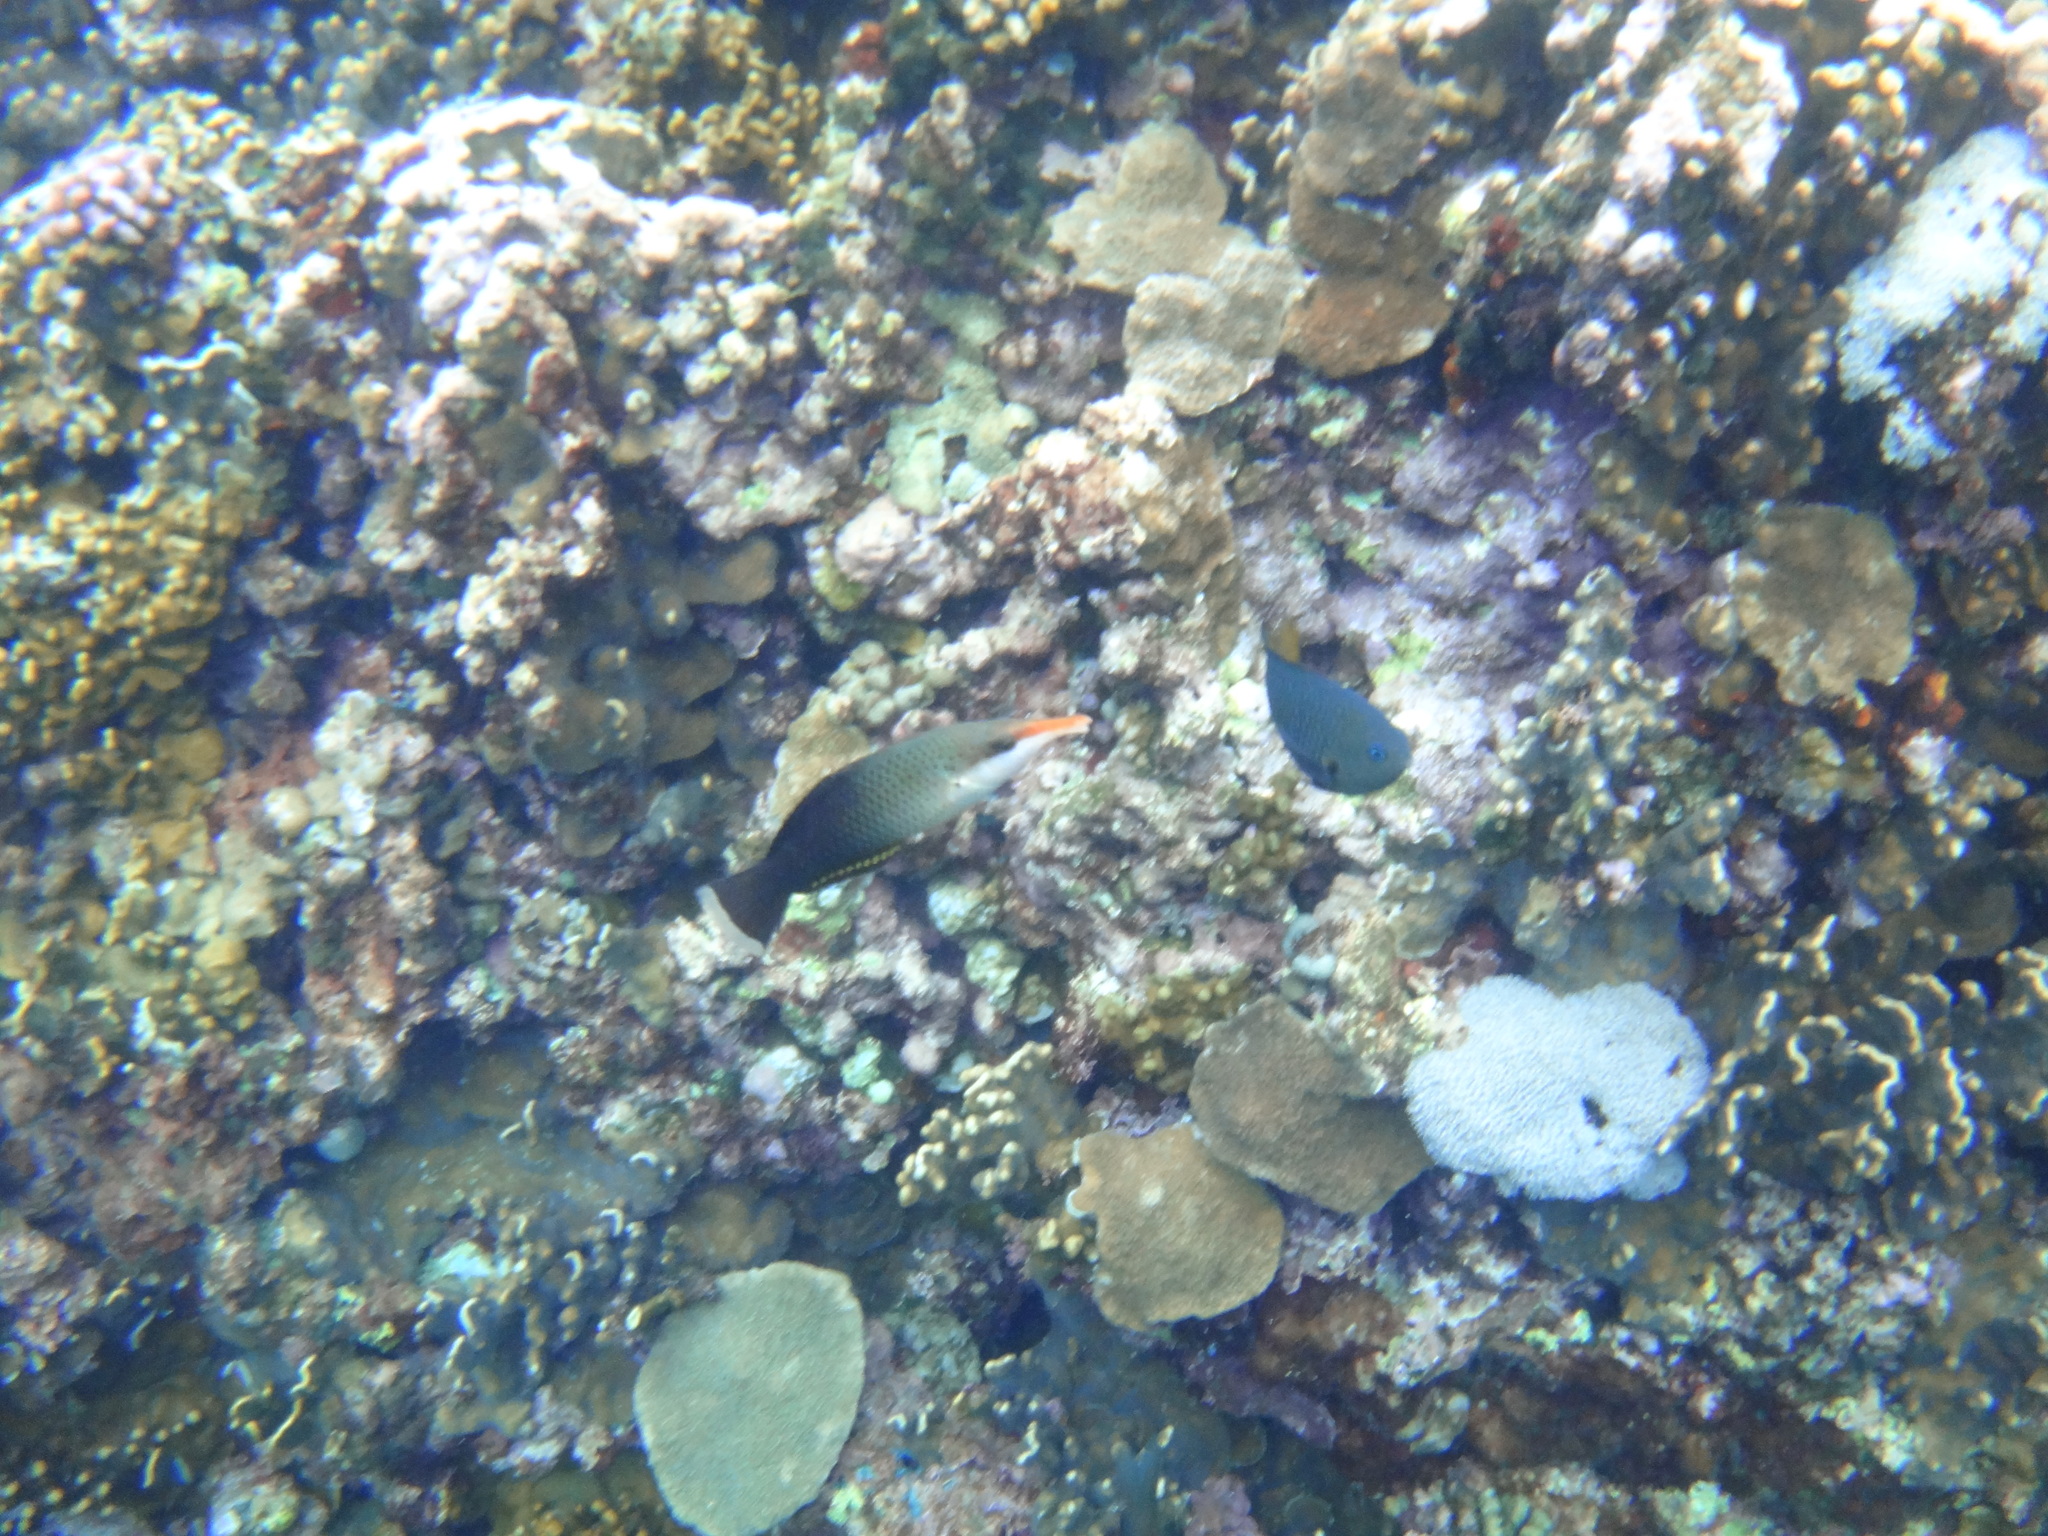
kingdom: Animalia
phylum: Chordata
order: Perciformes
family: Labridae
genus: Gomphosus
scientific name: Gomphosus varius
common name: Bird wrasse
